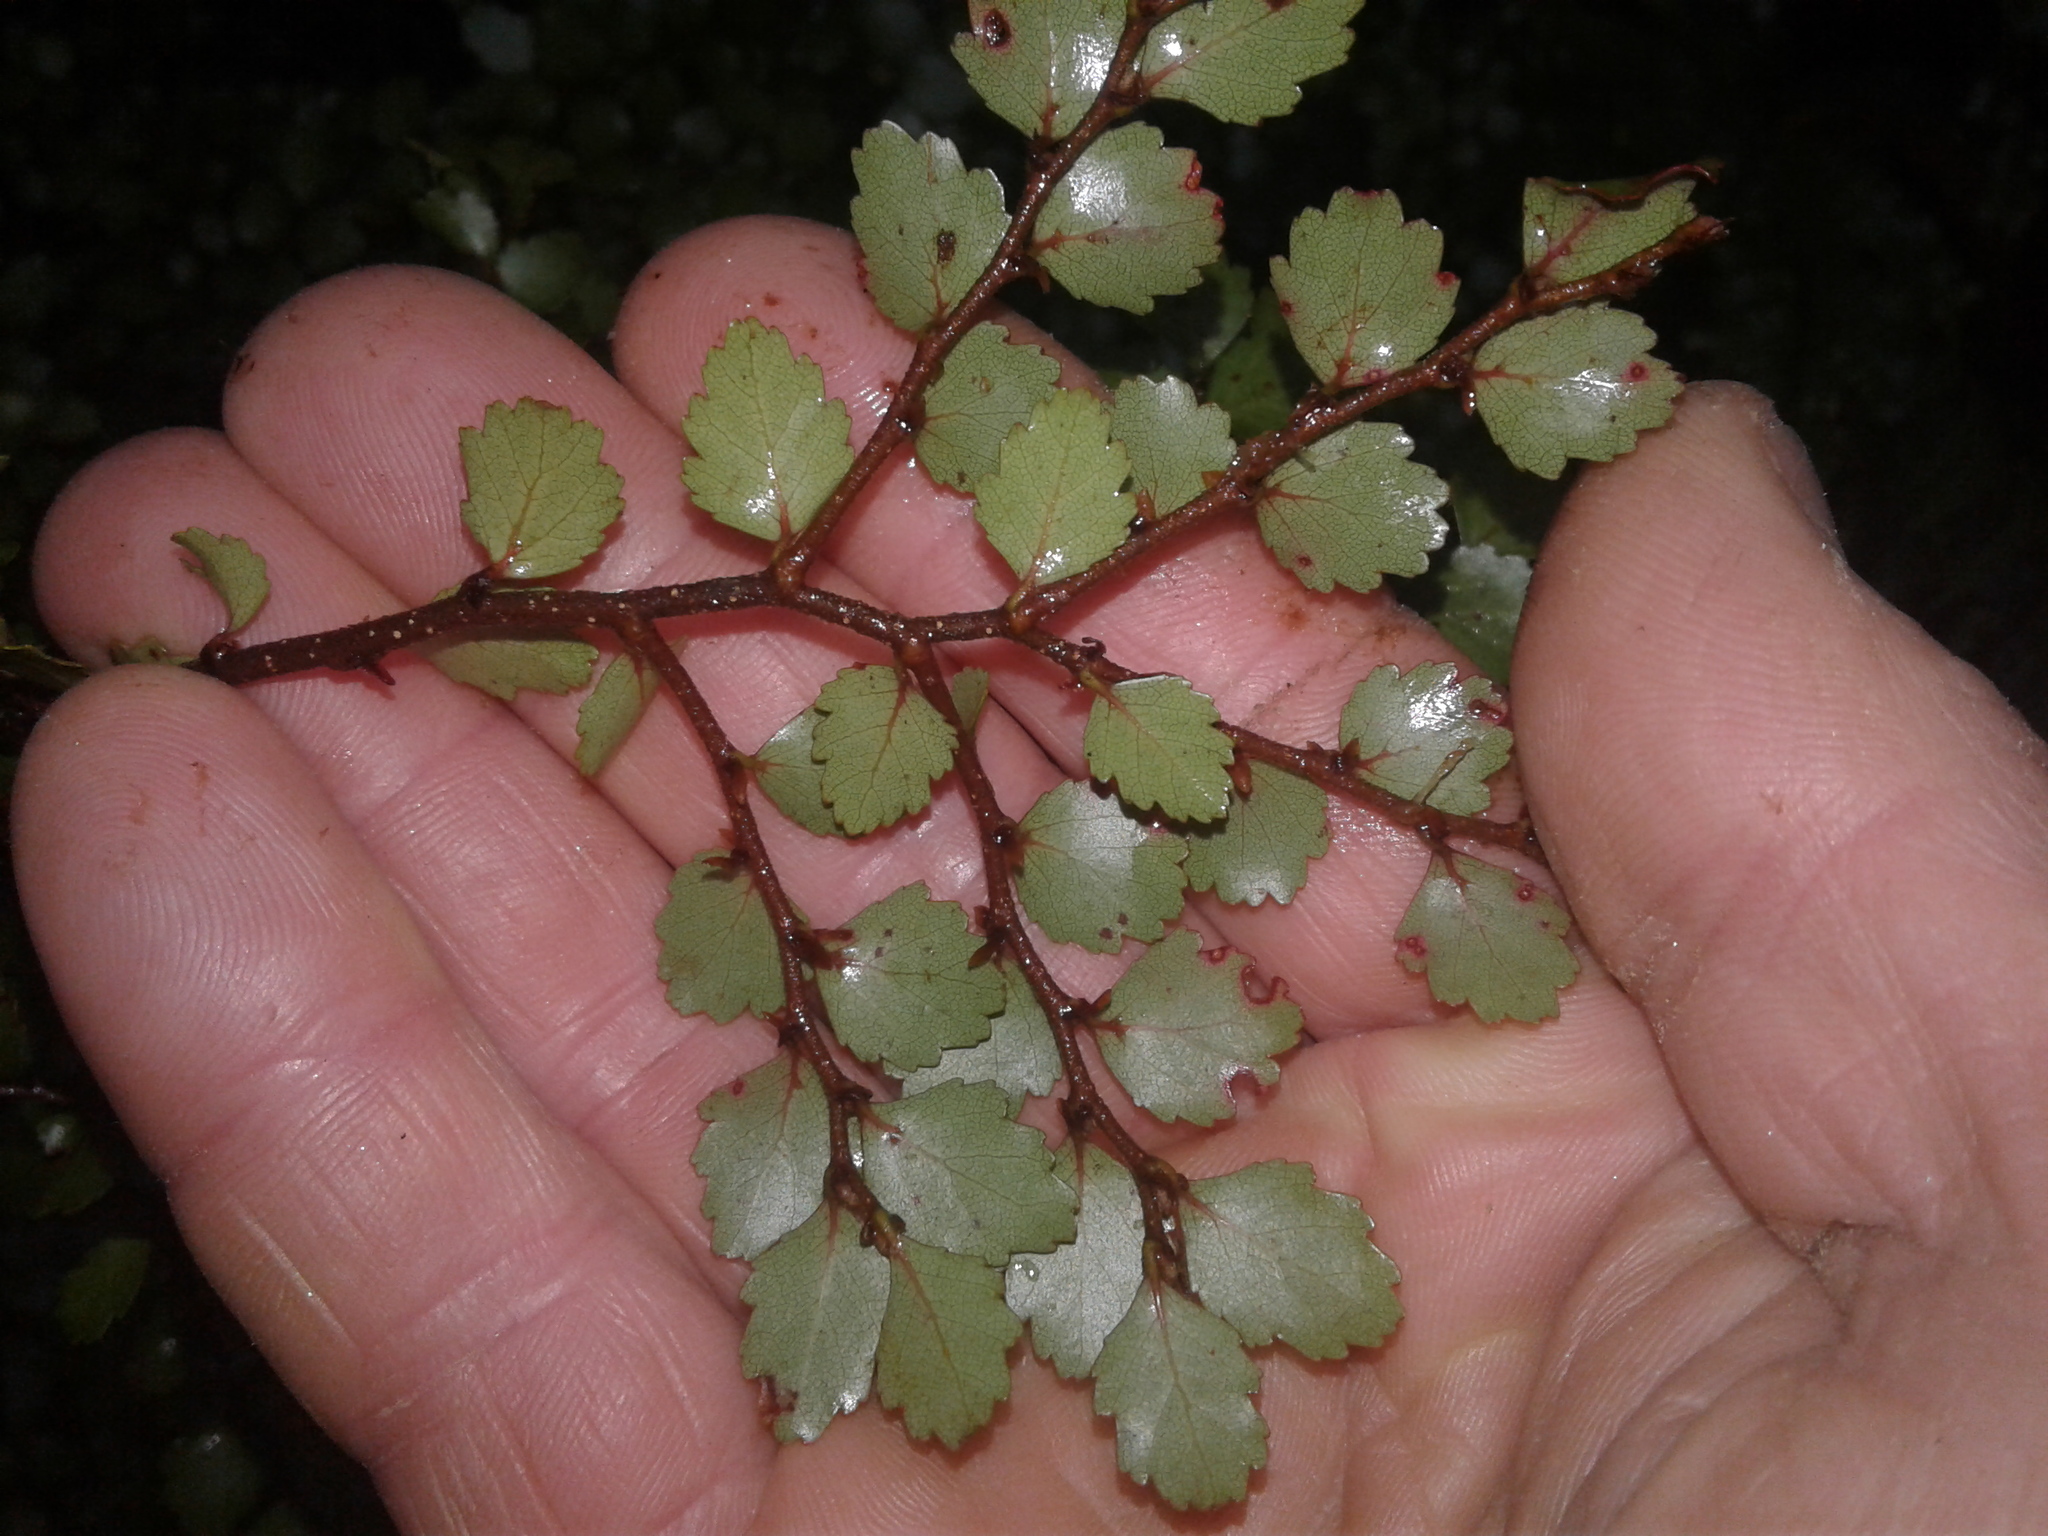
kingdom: Plantae
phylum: Tracheophyta
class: Magnoliopsida
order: Fagales
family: Nothofagaceae
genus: Nothofagus
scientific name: Nothofagus menziesii
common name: Silver beech
